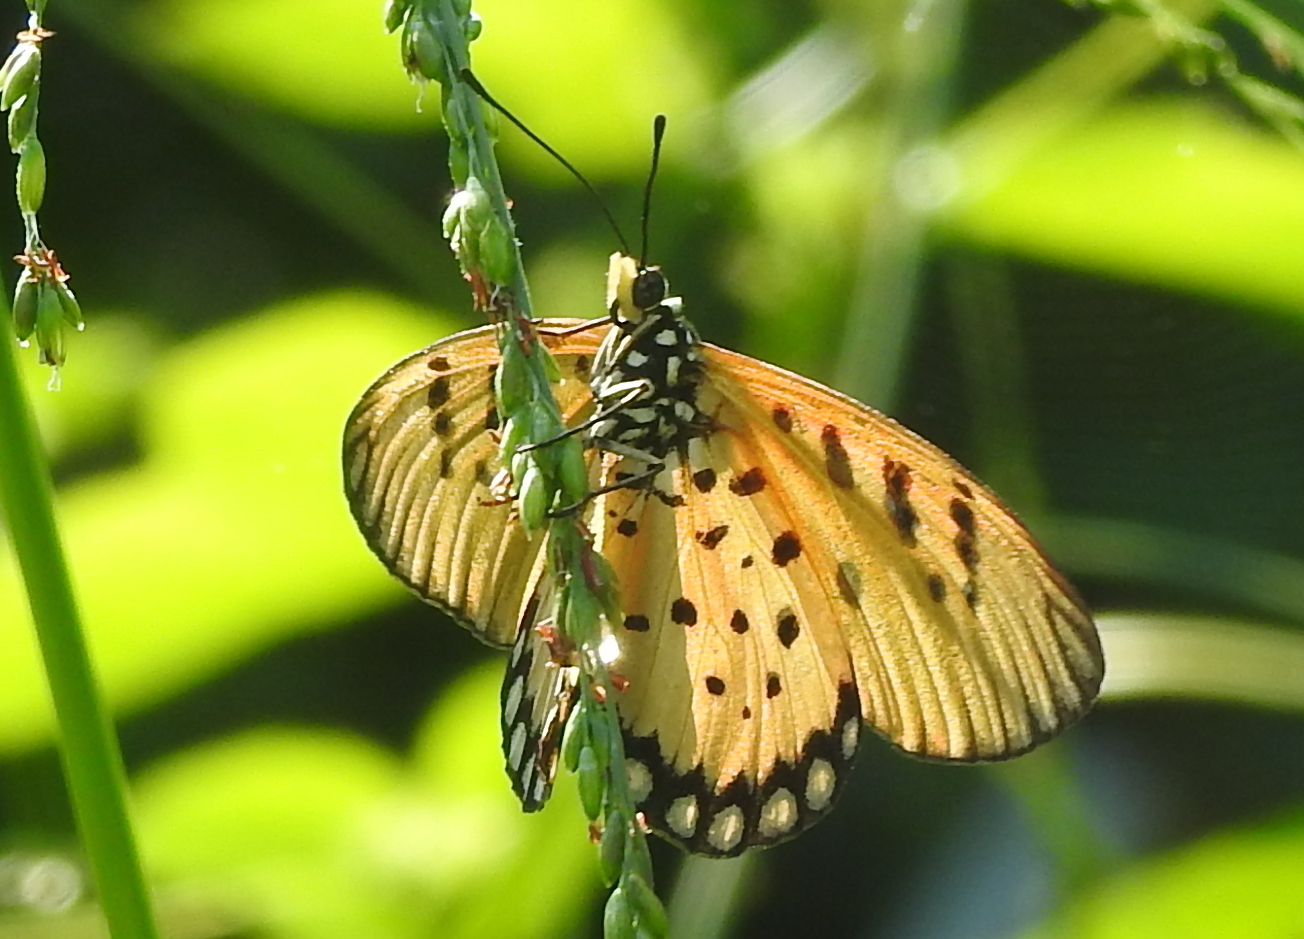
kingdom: Animalia
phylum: Arthropoda
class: Insecta
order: Lepidoptera
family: Nymphalidae
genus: Acraea
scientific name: Acraea terpsicore
